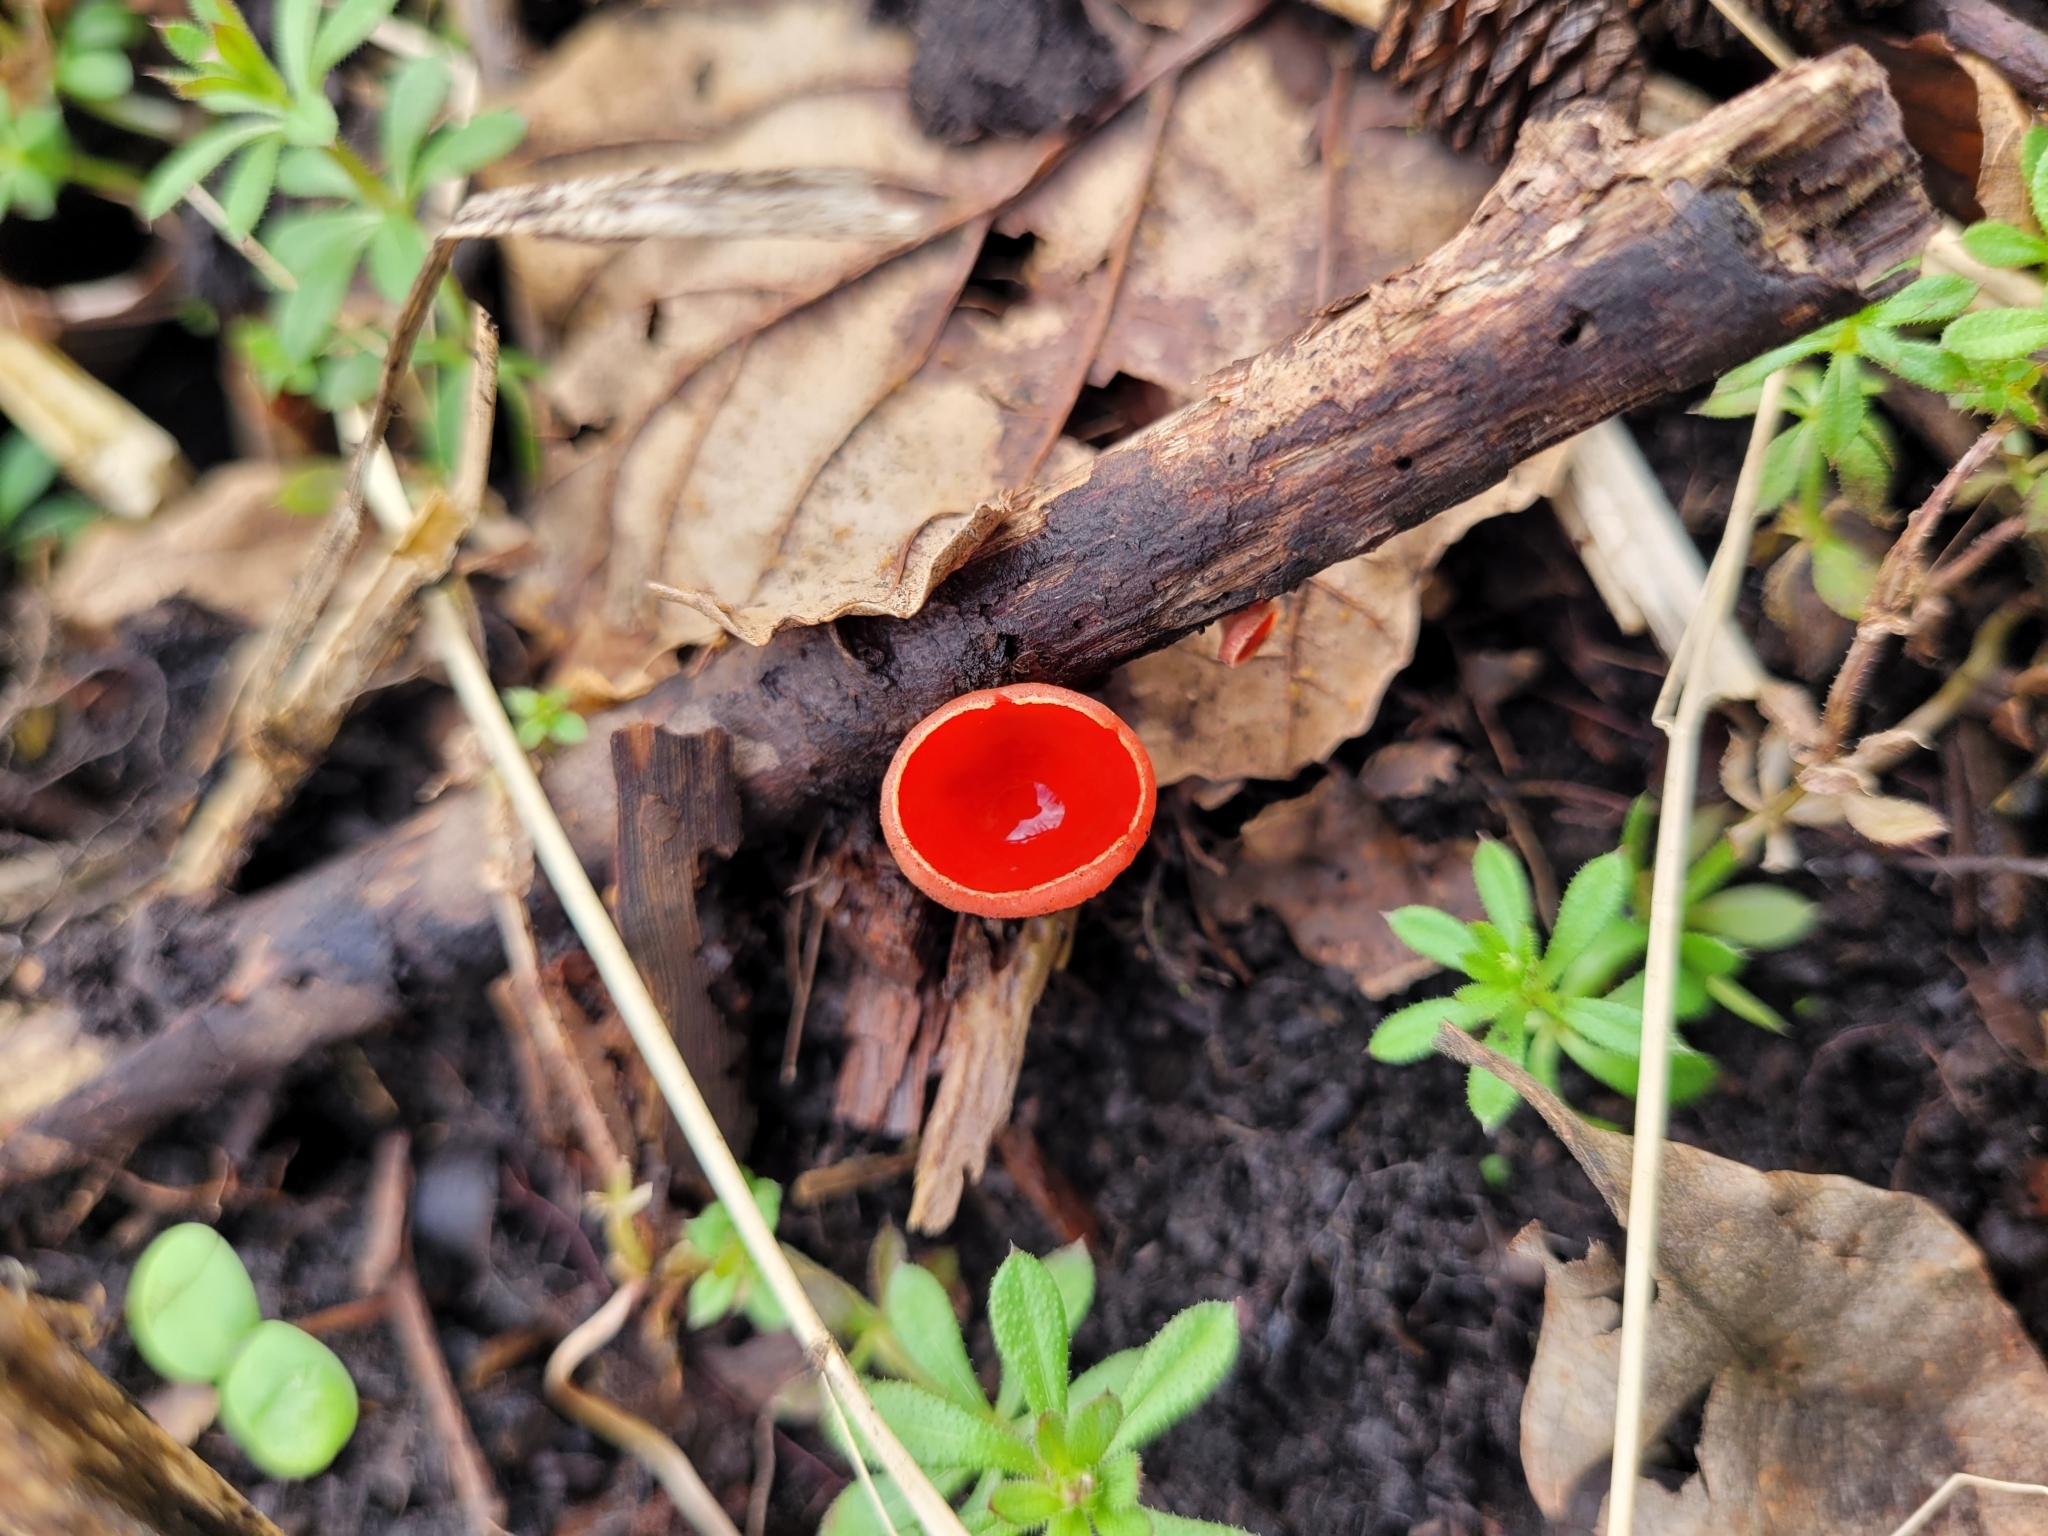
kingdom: Fungi
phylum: Ascomycota
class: Pezizomycetes
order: Pezizales
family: Sarcoscyphaceae
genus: Sarcoscypha
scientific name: Sarcoscypha
